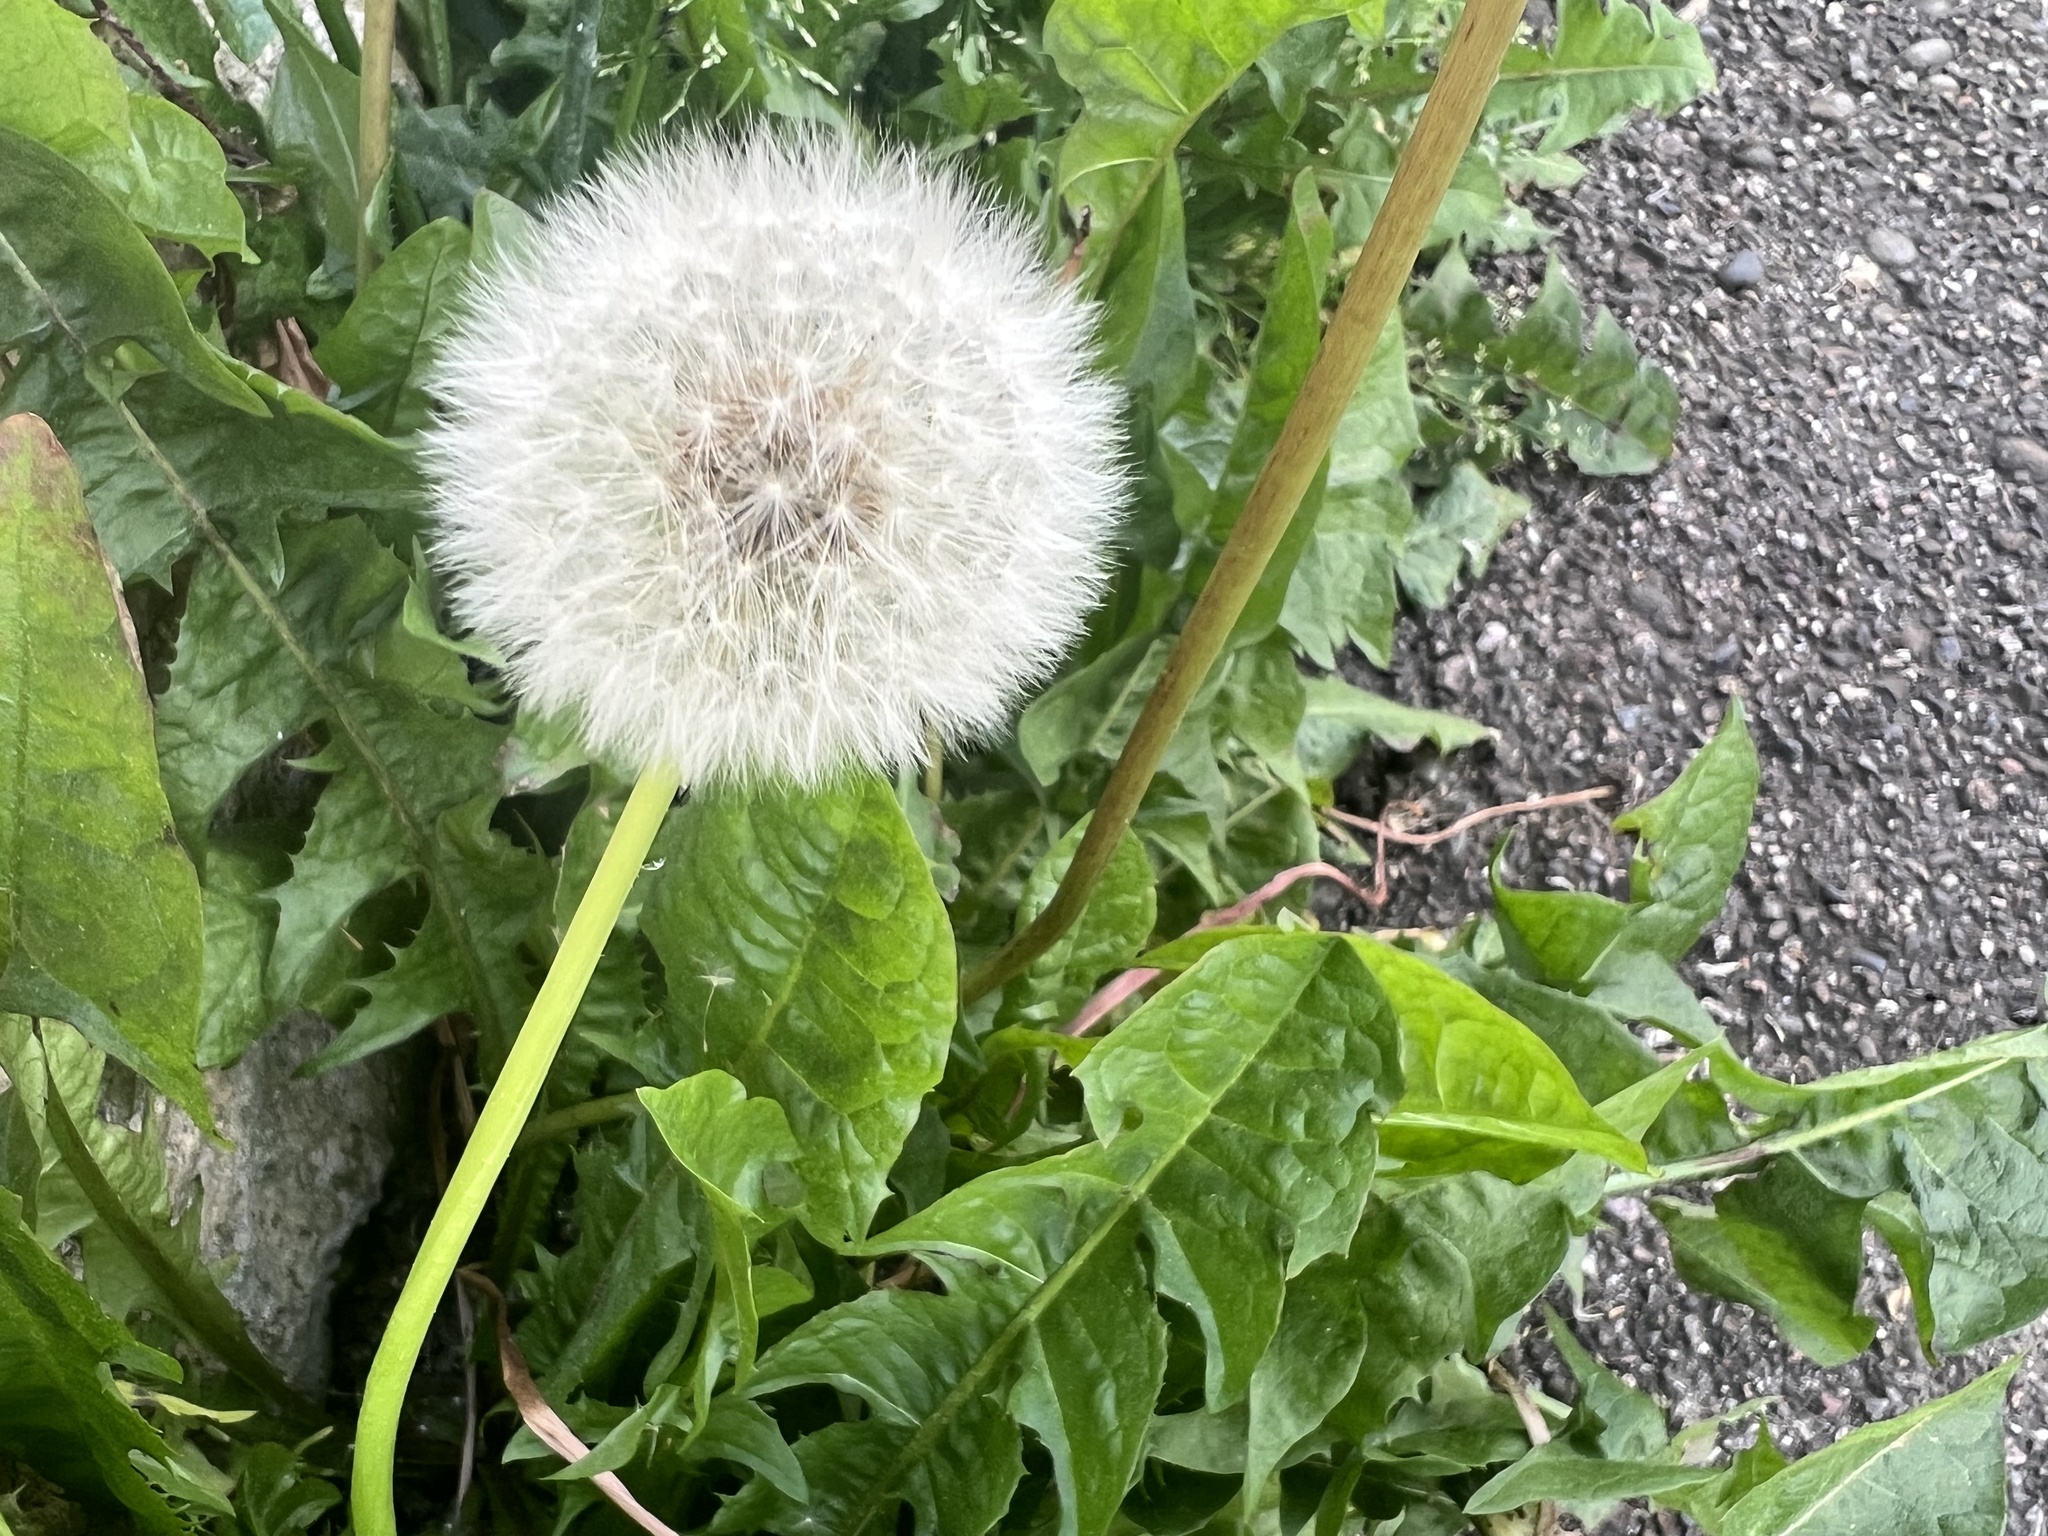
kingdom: Plantae
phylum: Tracheophyta
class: Magnoliopsida
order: Asterales
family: Asteraceae
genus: Taraxacum
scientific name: Taraxacum officinale
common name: Common dandelion
